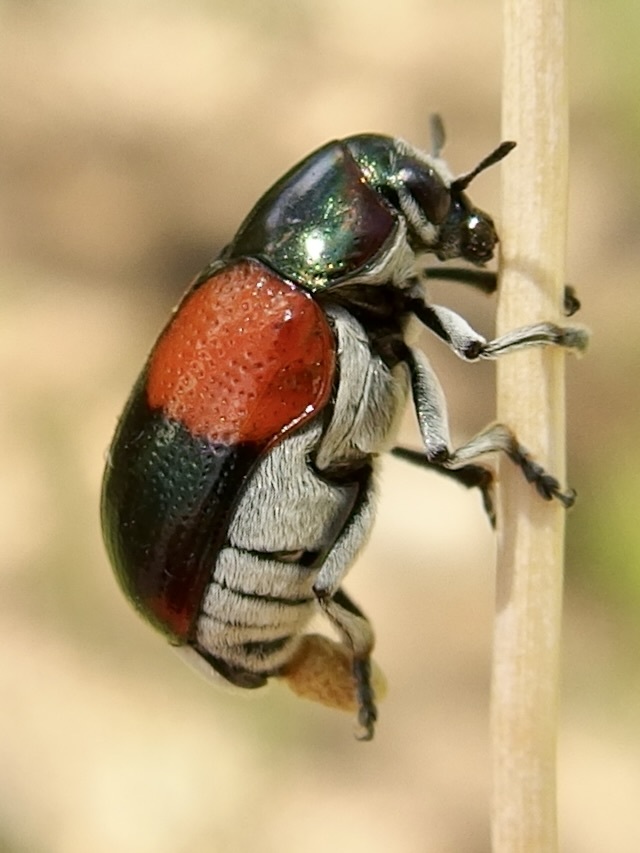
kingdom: Animalia
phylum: Arthropoda
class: Insecta
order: Coleoptera
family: Chrysomelidae
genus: Megalostomis
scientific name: Megalostomis pyropyga
